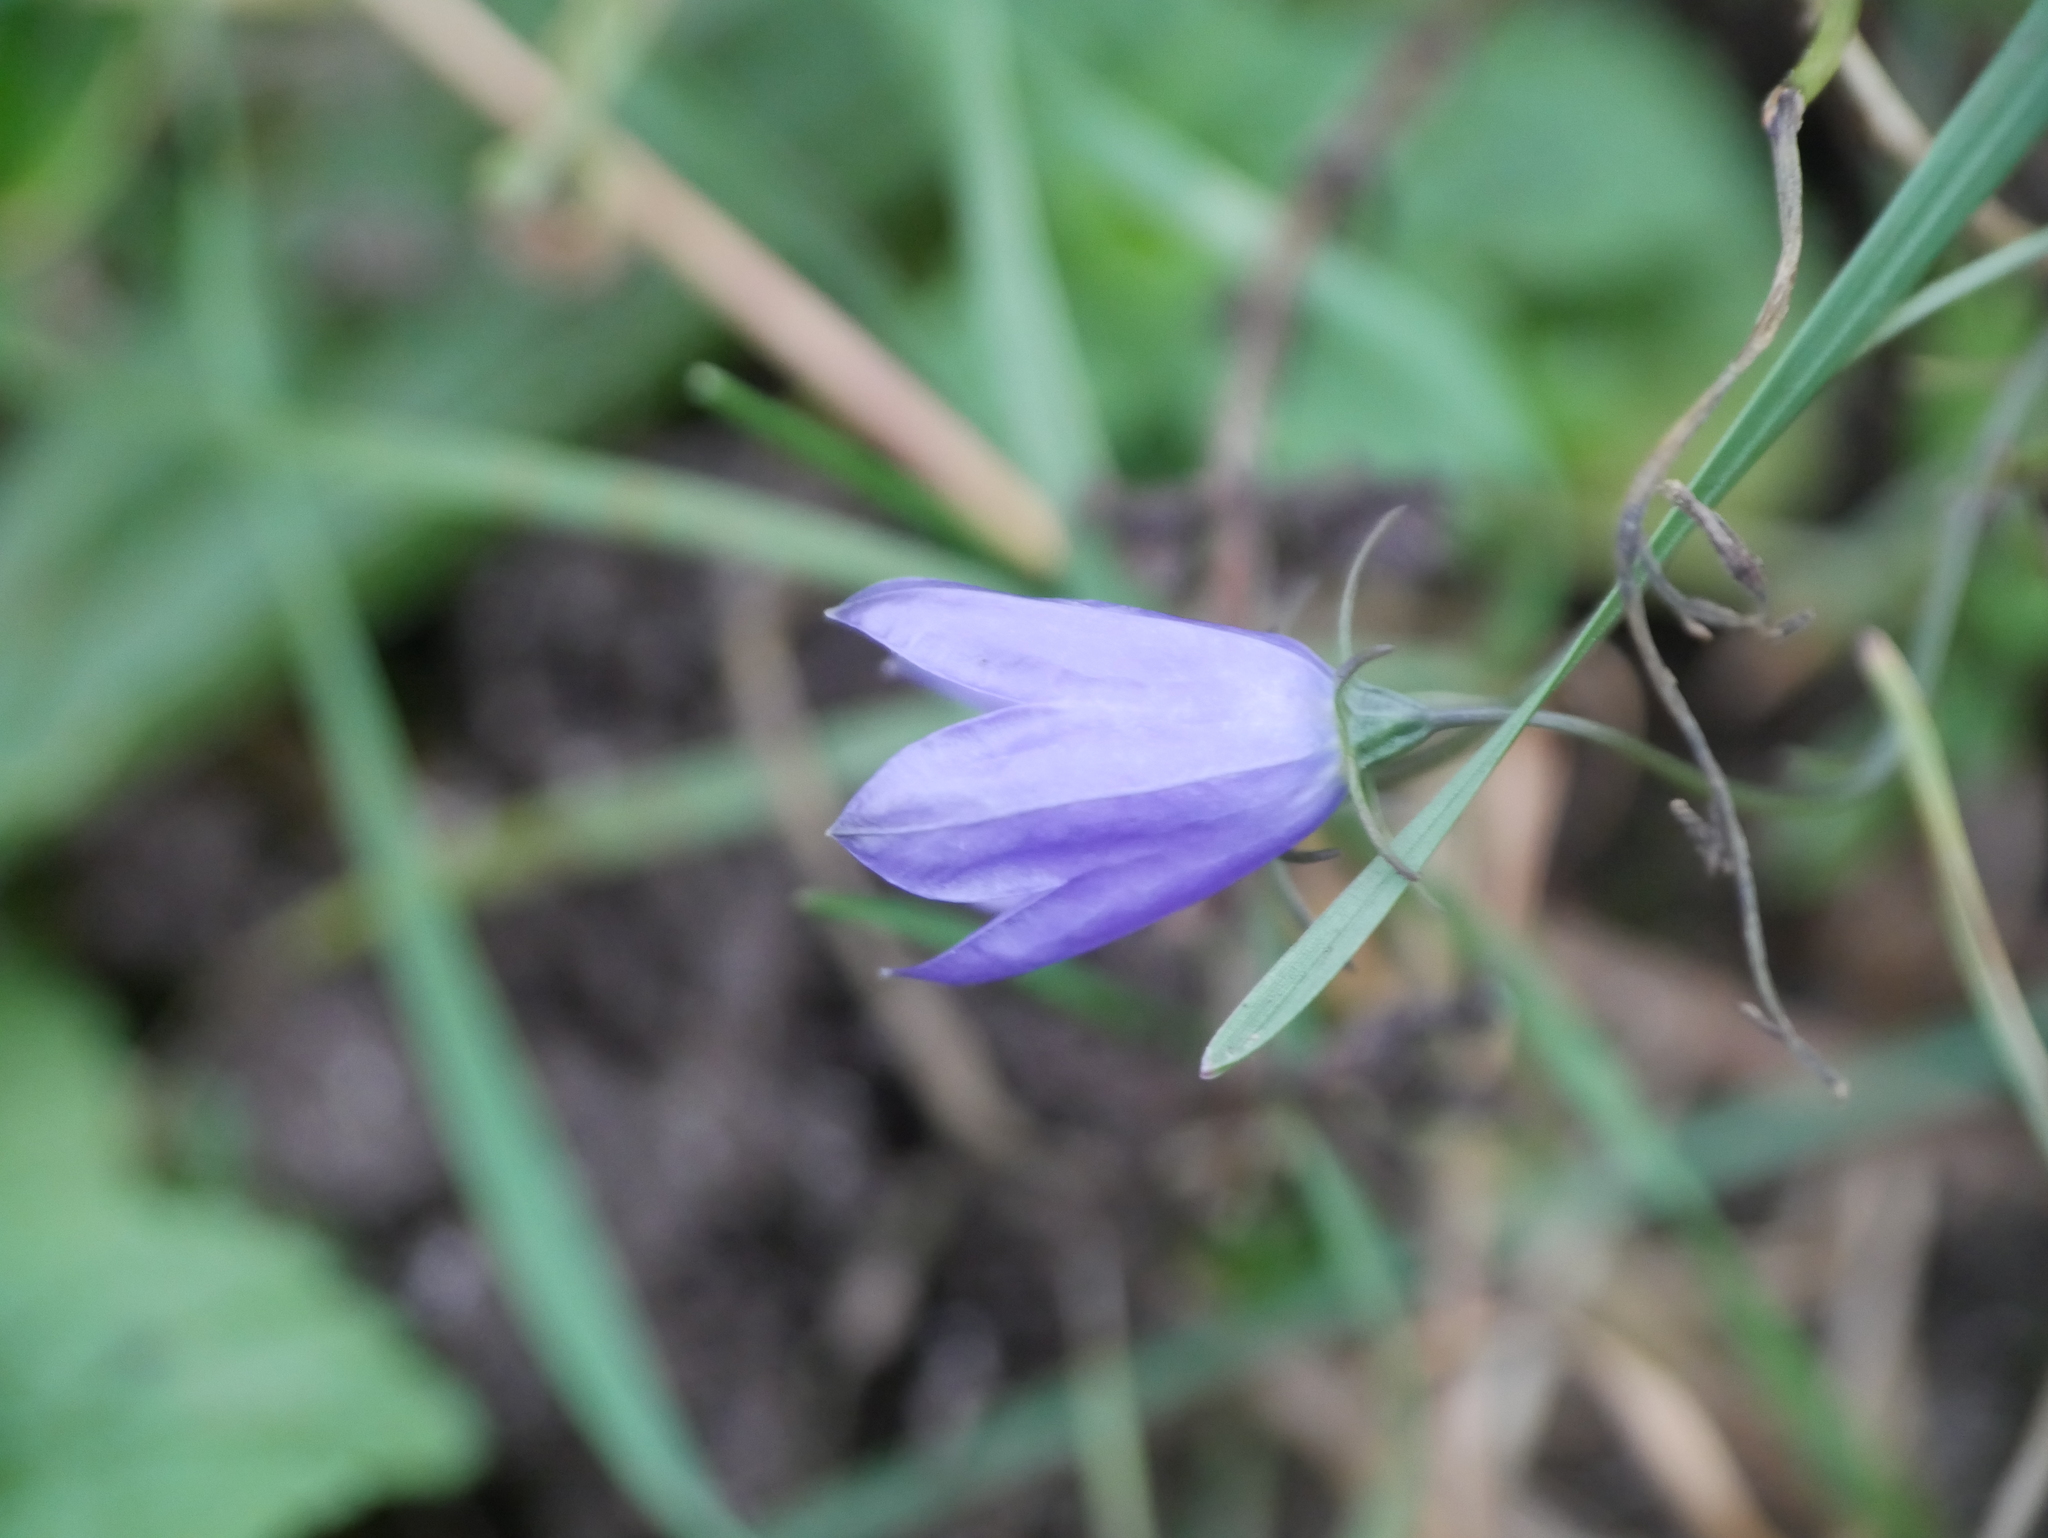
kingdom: Plantae
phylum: Tracheophyta
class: Magnoliopsida
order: Asterales
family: Campanulaceae
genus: Campanula
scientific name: Campanula rotundifolia
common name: Harebell
